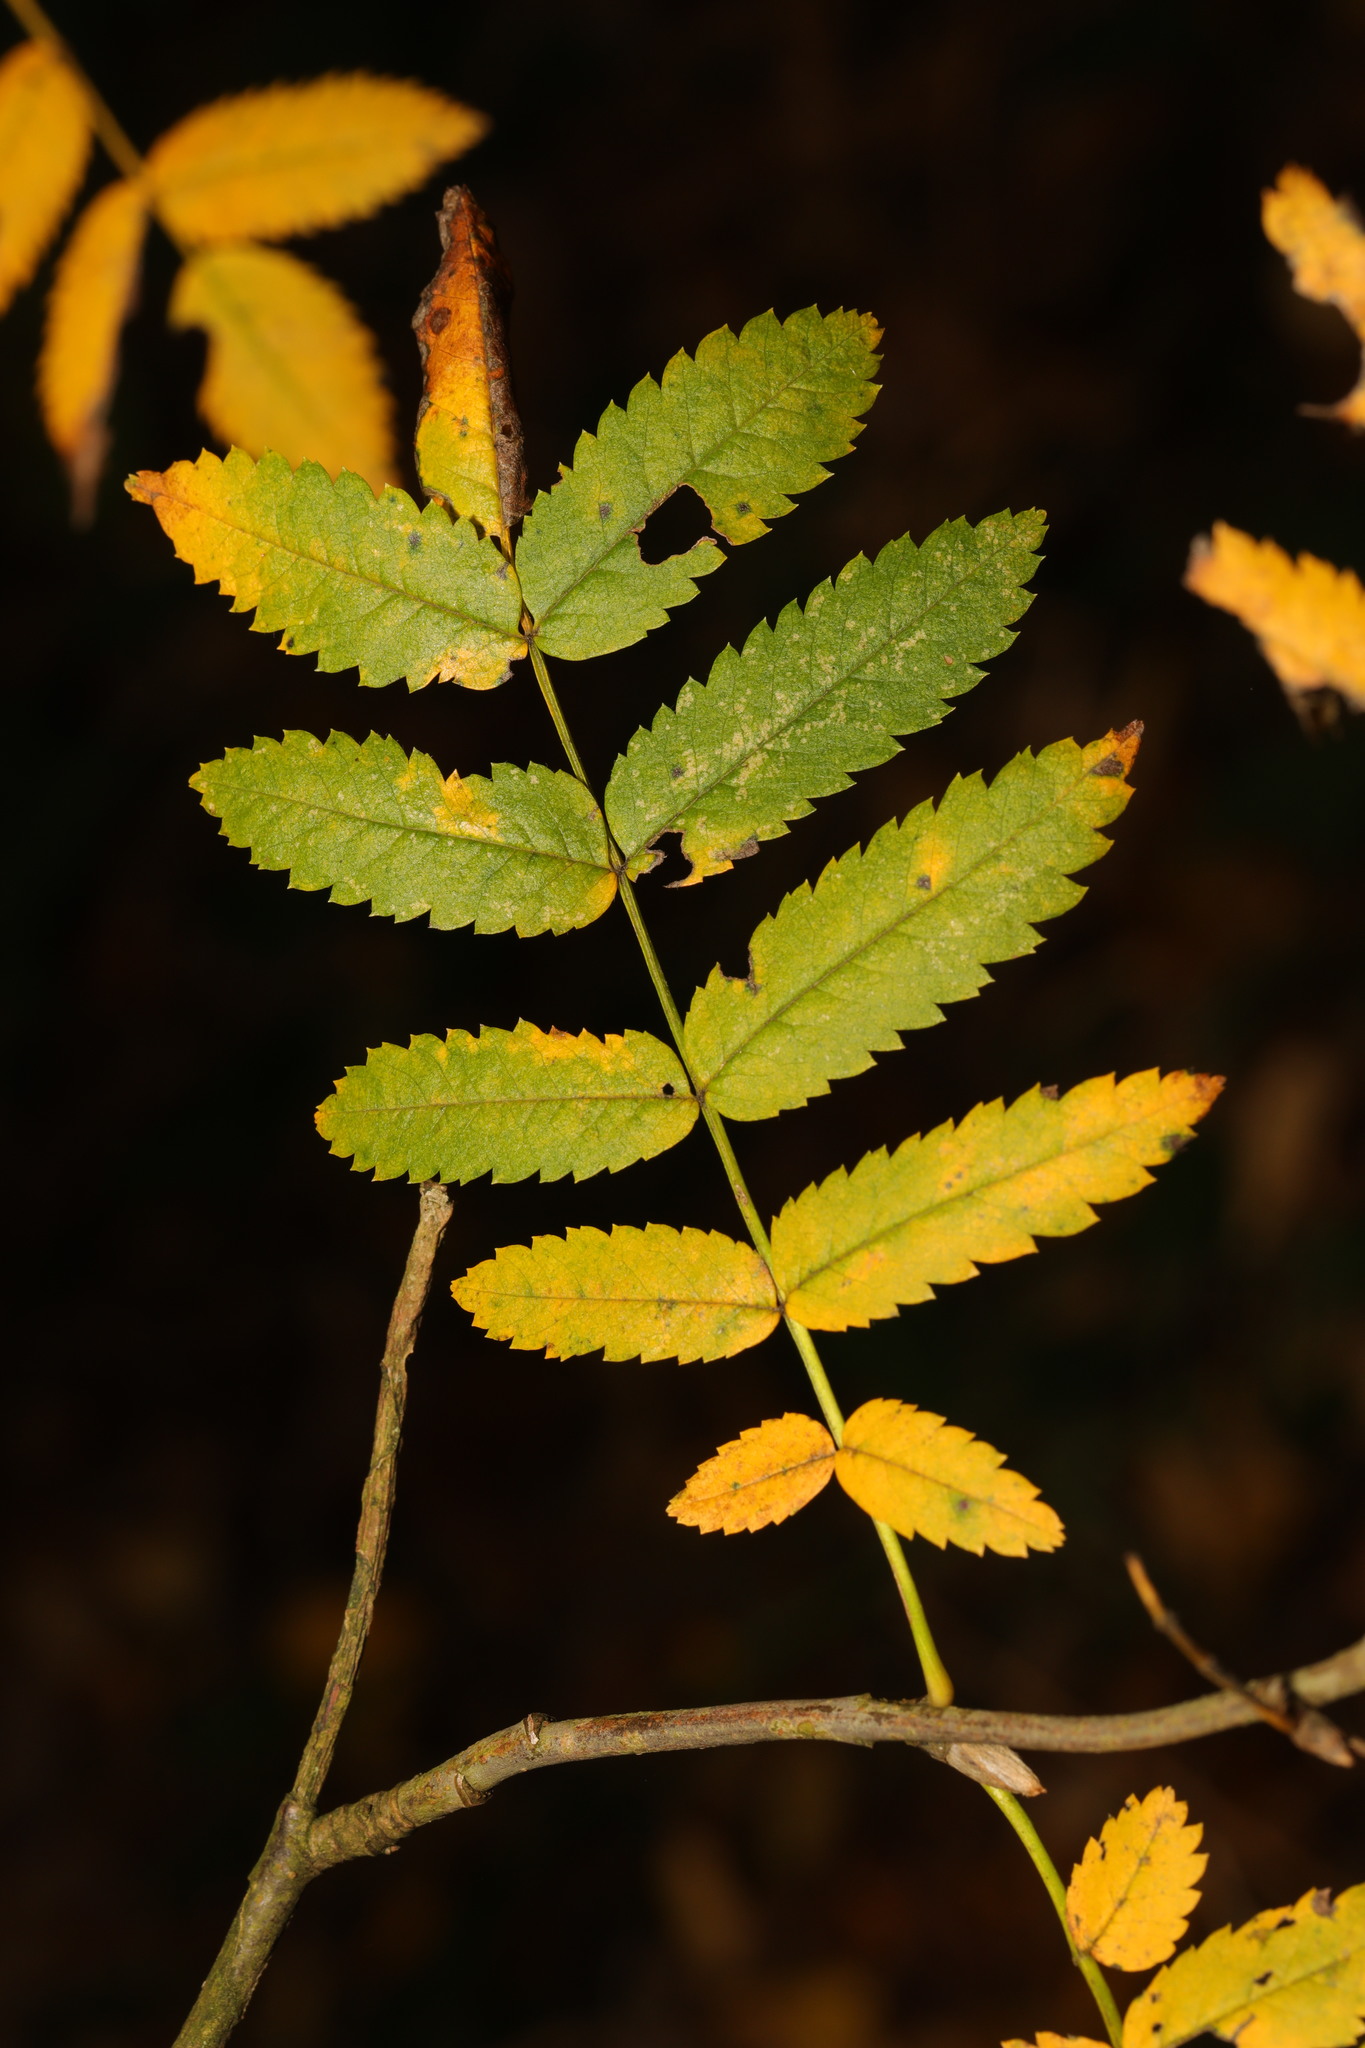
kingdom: Plantae
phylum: Tracheophyta
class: Magnoliopsida
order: Rosales
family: Rosaceae
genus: Sorbus
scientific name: Sorbus aucuparia
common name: Rowan
